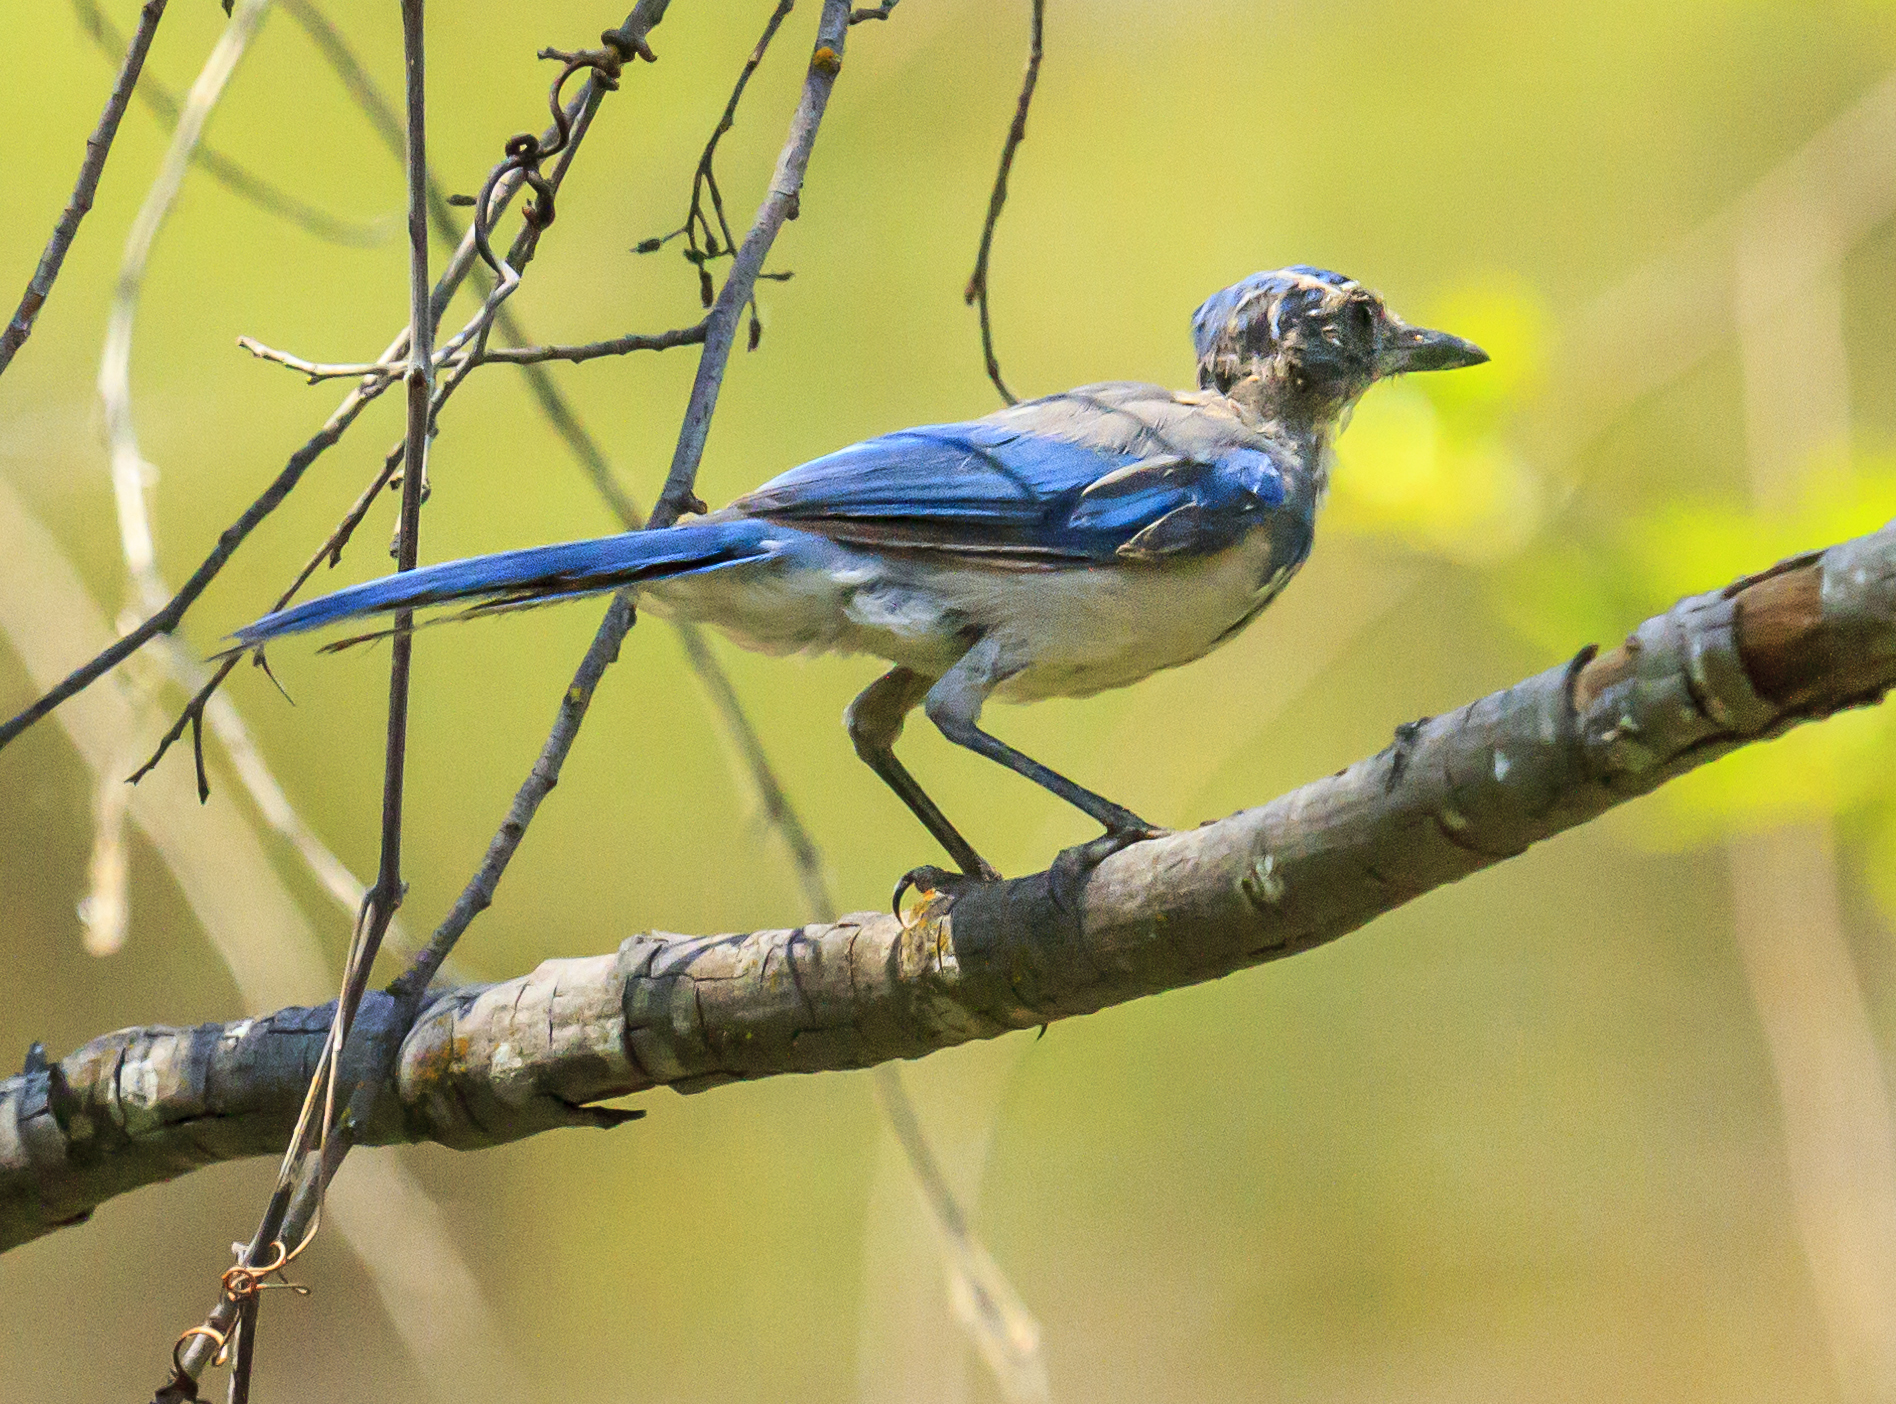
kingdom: Animalia
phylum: Chordata
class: Aves
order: Passeriformes
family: Corvidae
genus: Aphelocoma
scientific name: Aphelocoma californica
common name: California scrub-jay
